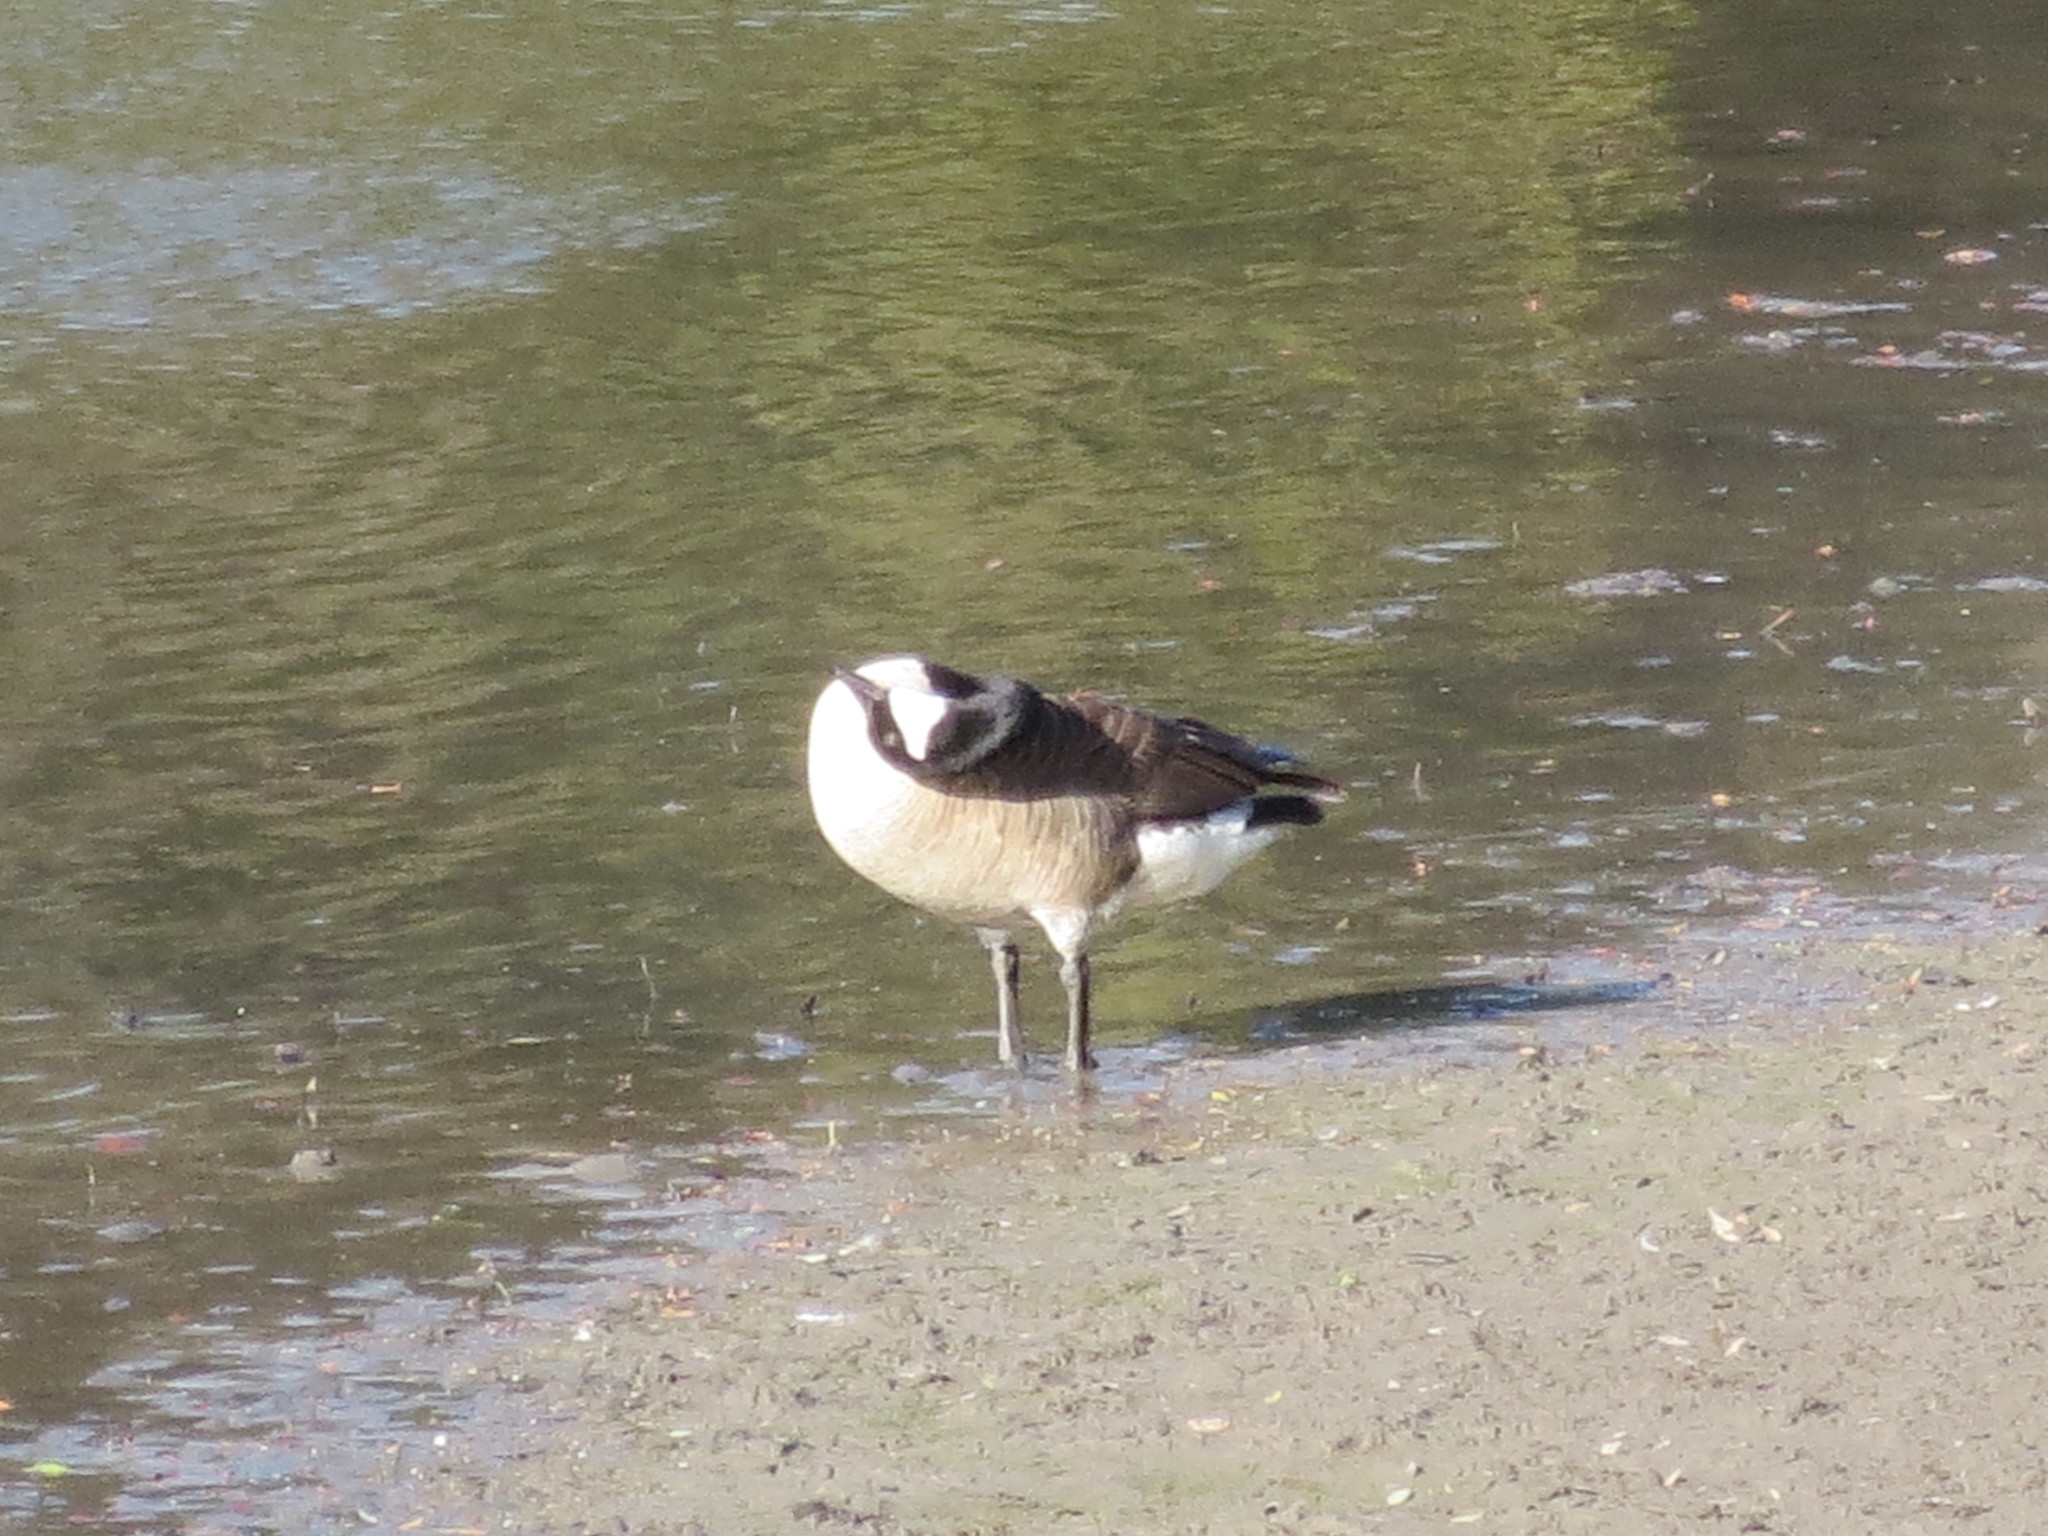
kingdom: Animalia
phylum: Chordata
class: Aves
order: Anseriformes
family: Anatidae
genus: Branta
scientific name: Branta canadensis
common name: Canada goose
